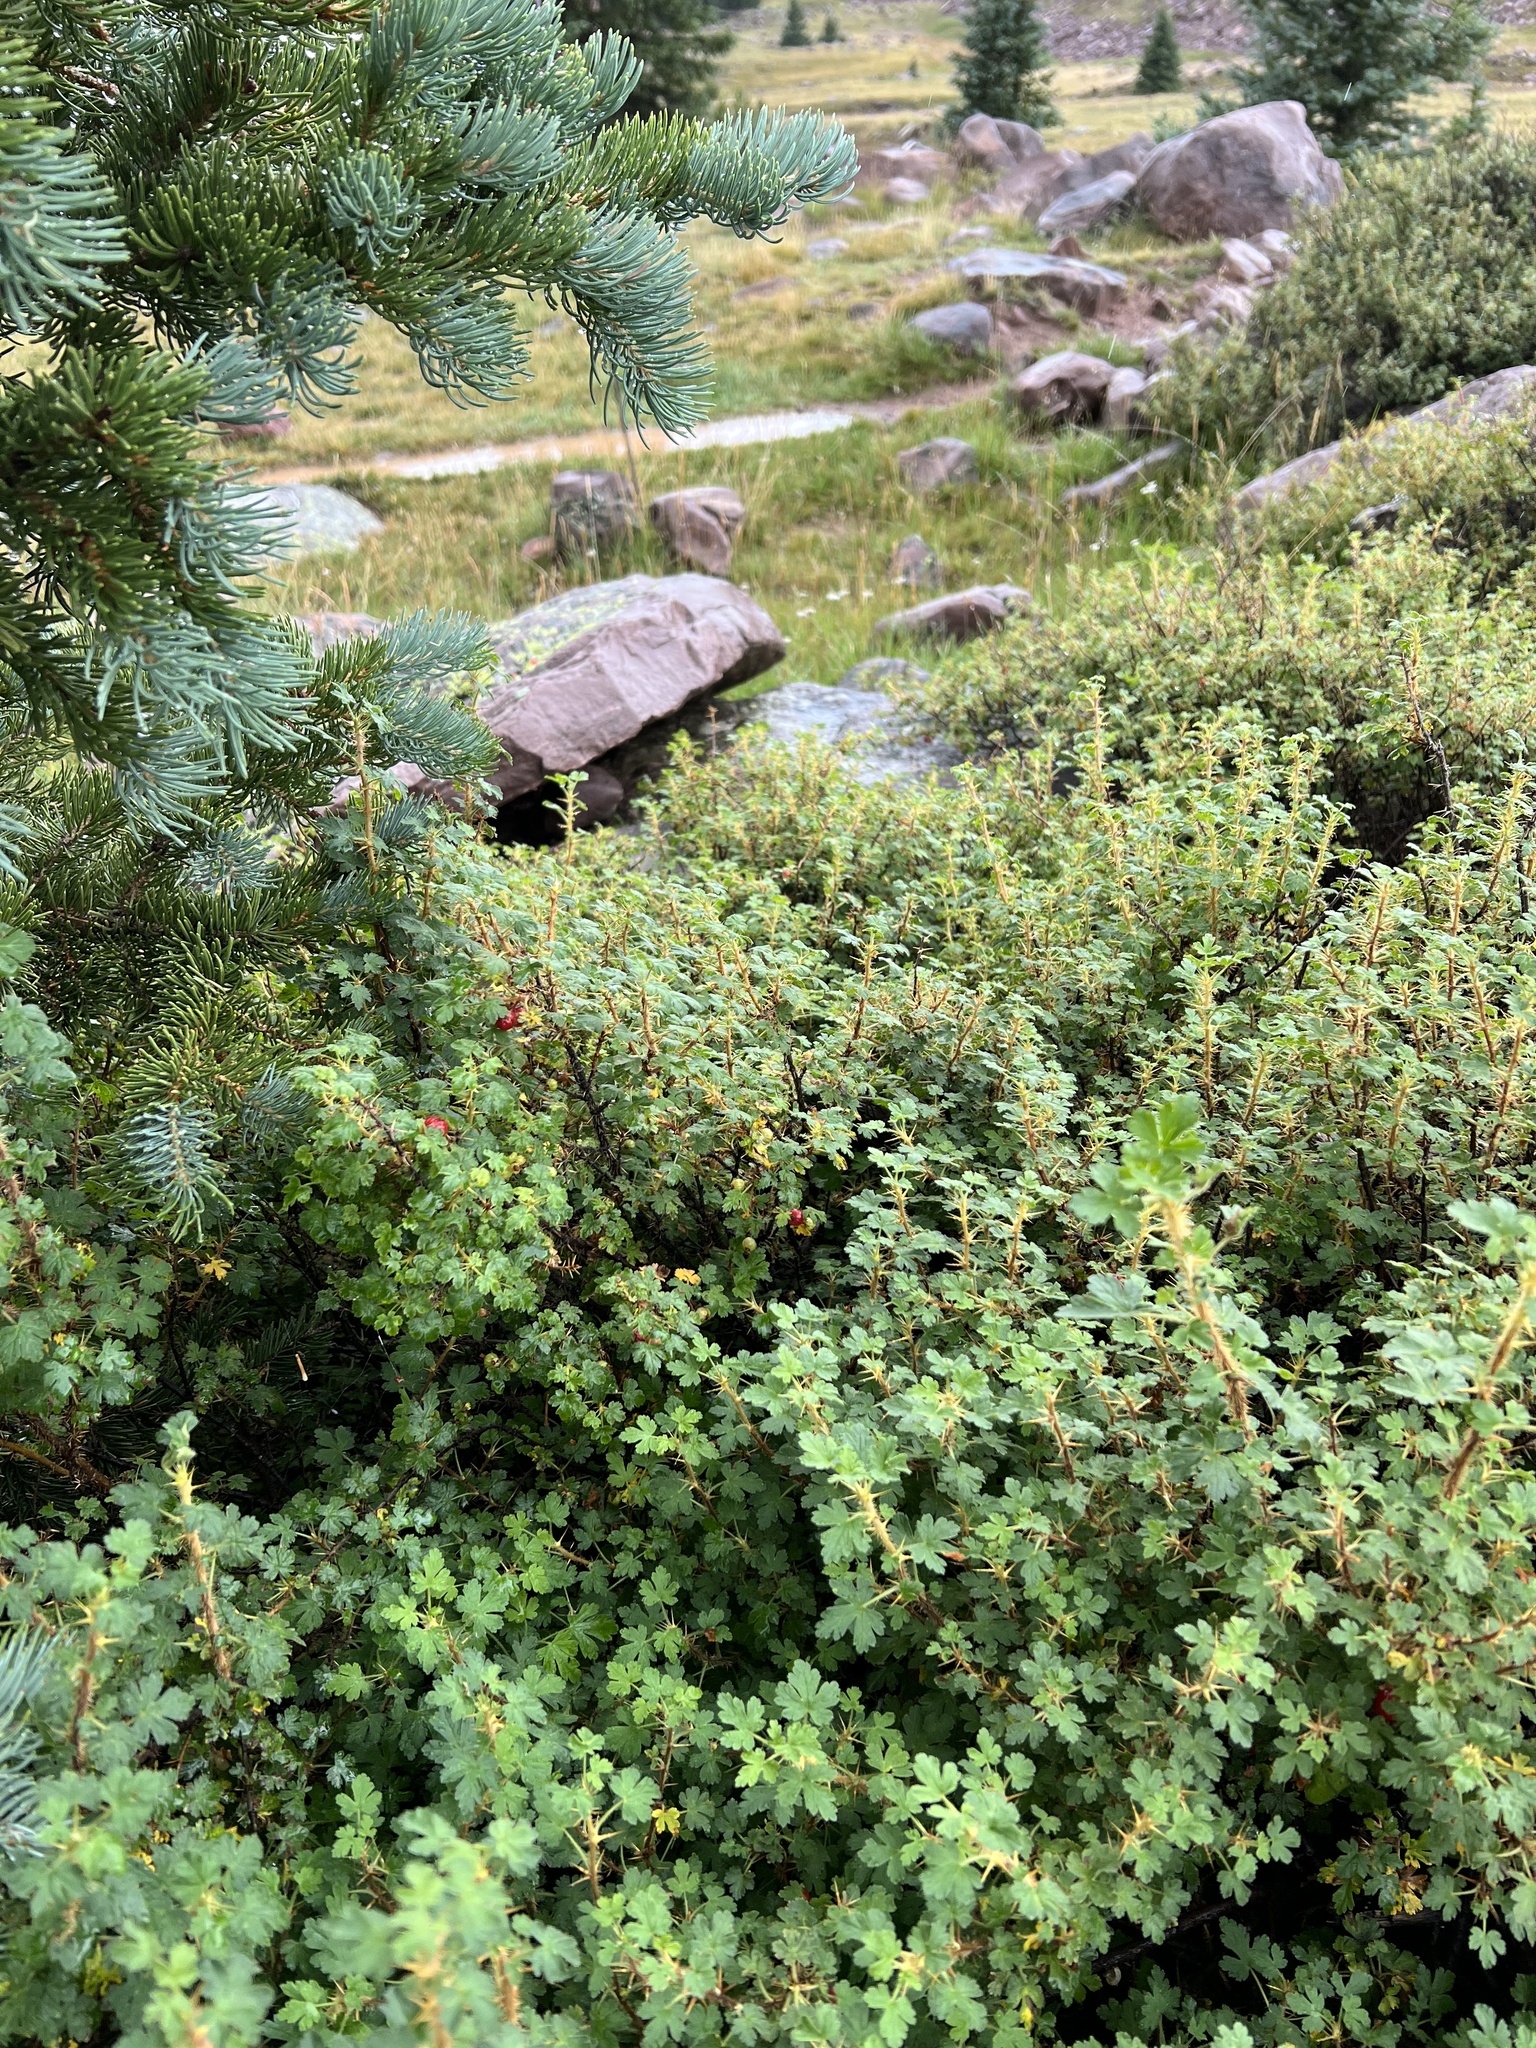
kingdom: Plantae
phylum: Tracheophyta
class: Magnoliopsida
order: Saxifragales
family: Grossulariaceae
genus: Ribes
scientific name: Ribes montigenum
